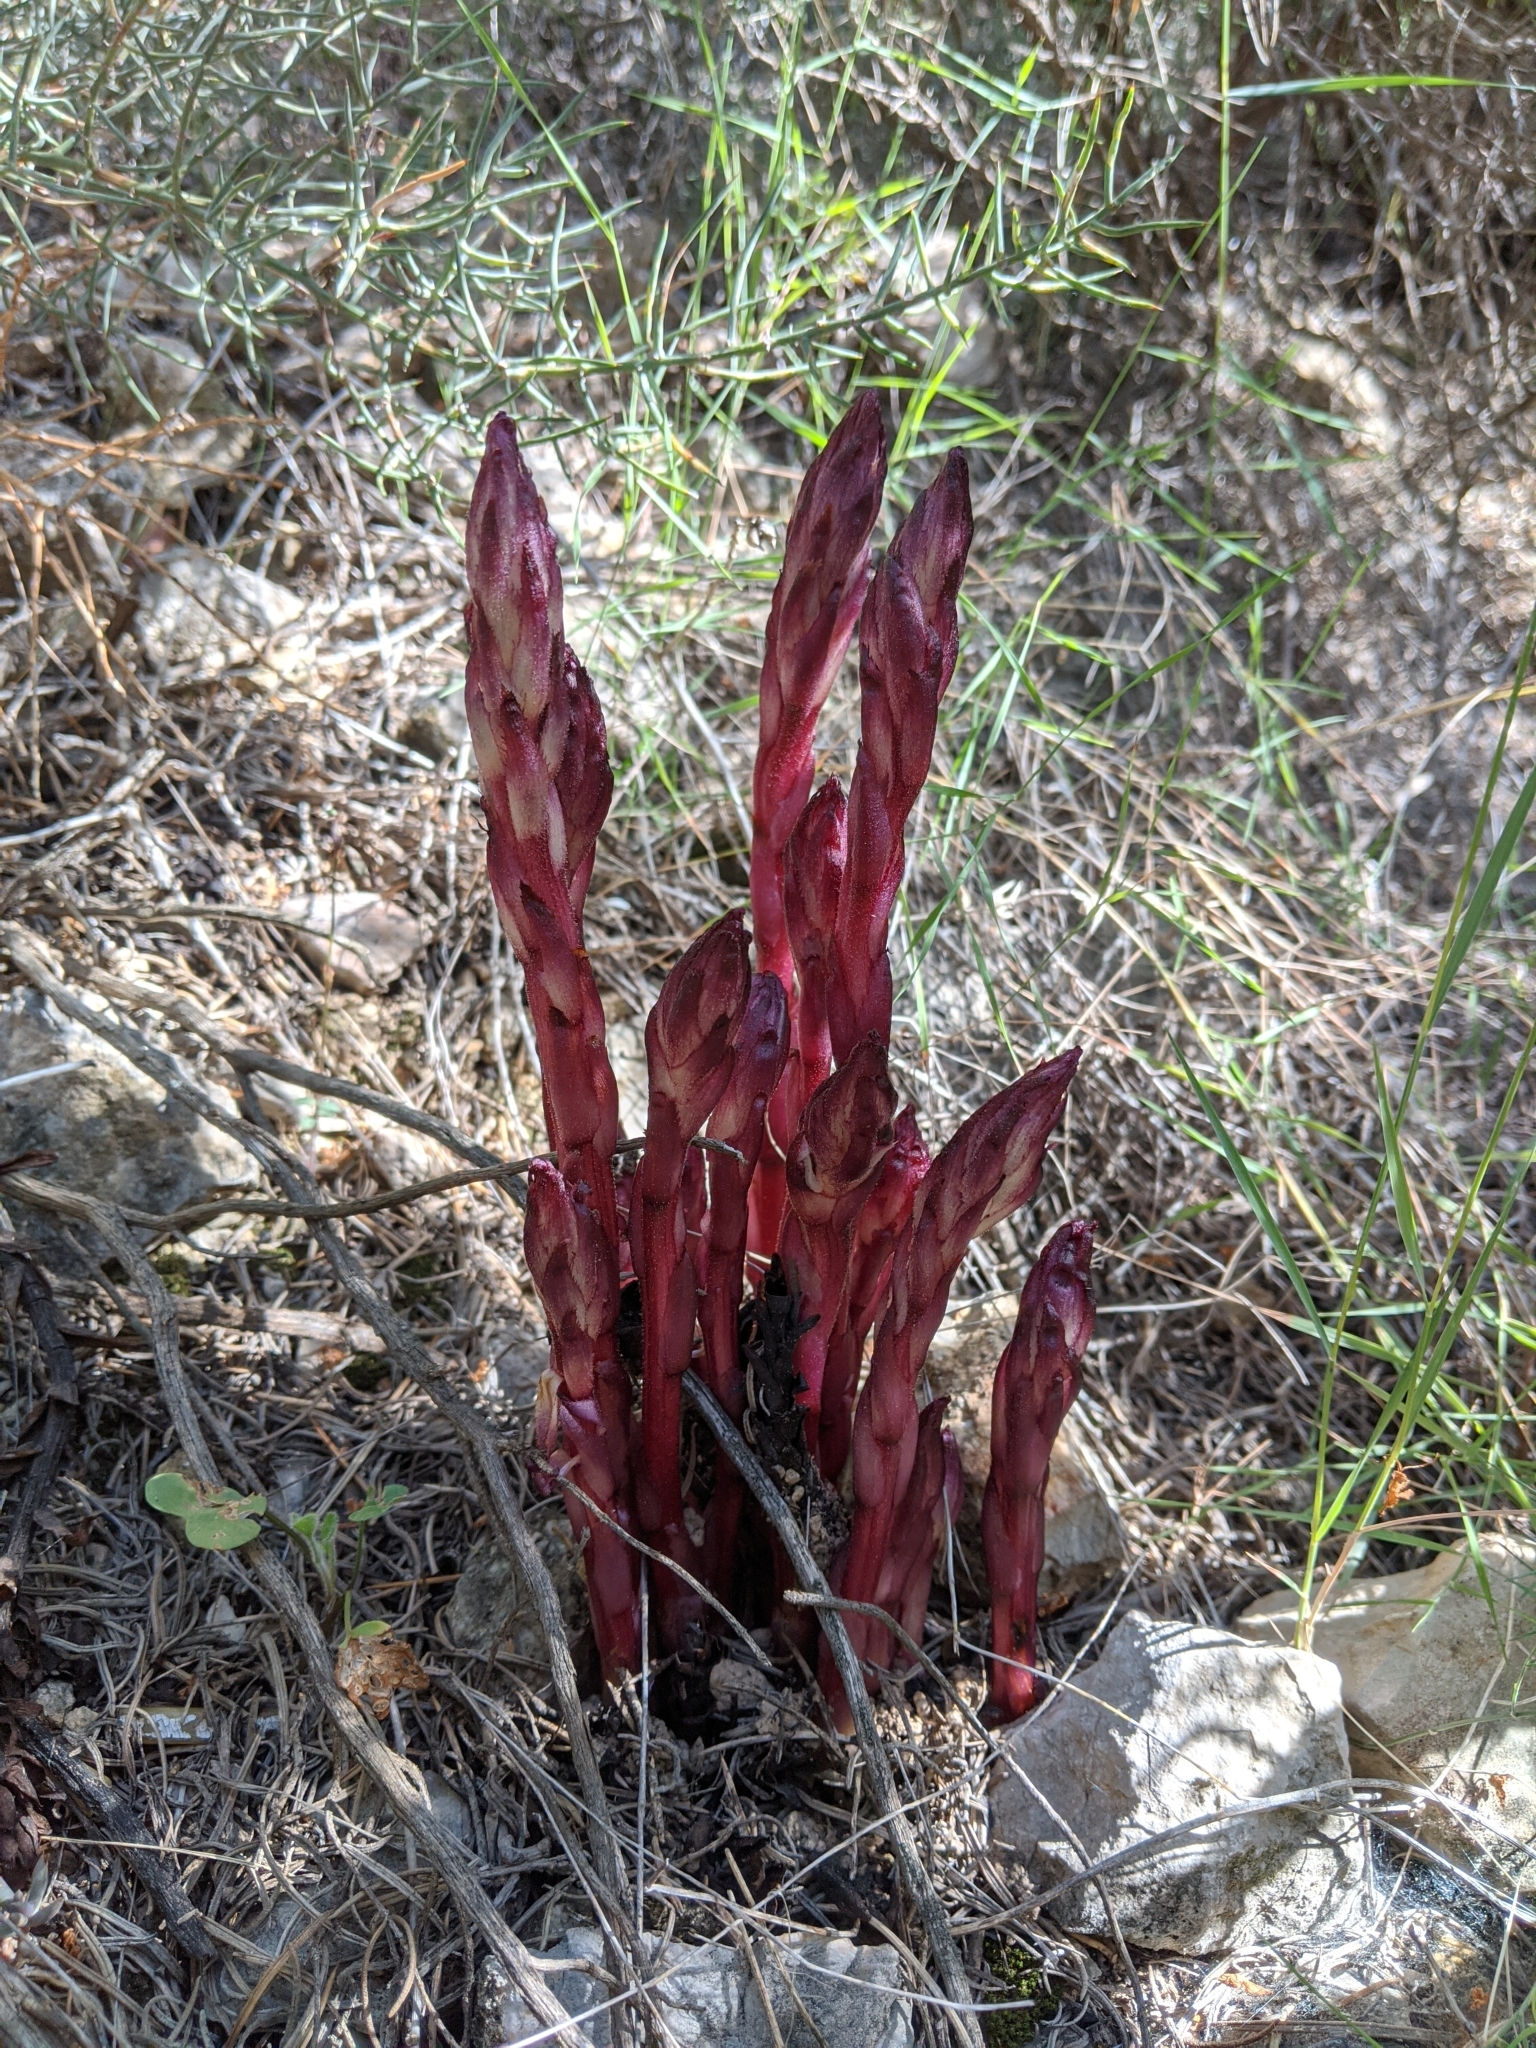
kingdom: Plantae
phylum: Tracheophyta
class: Magnoliopsida
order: Lamiales
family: Orobanchaceae
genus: Boulardia
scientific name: Boulardia latisquama
